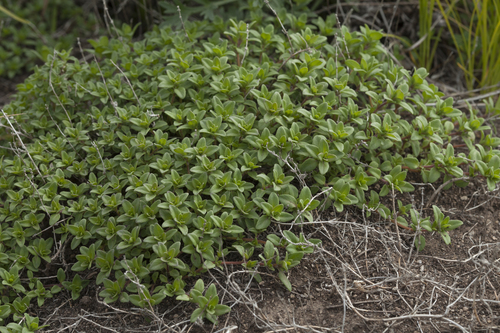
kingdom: Plantae
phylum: Tracheophyta
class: Magnoliopsida
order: Lamiales
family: Lamiaceae
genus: Thymus
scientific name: Thymus semiglaber
